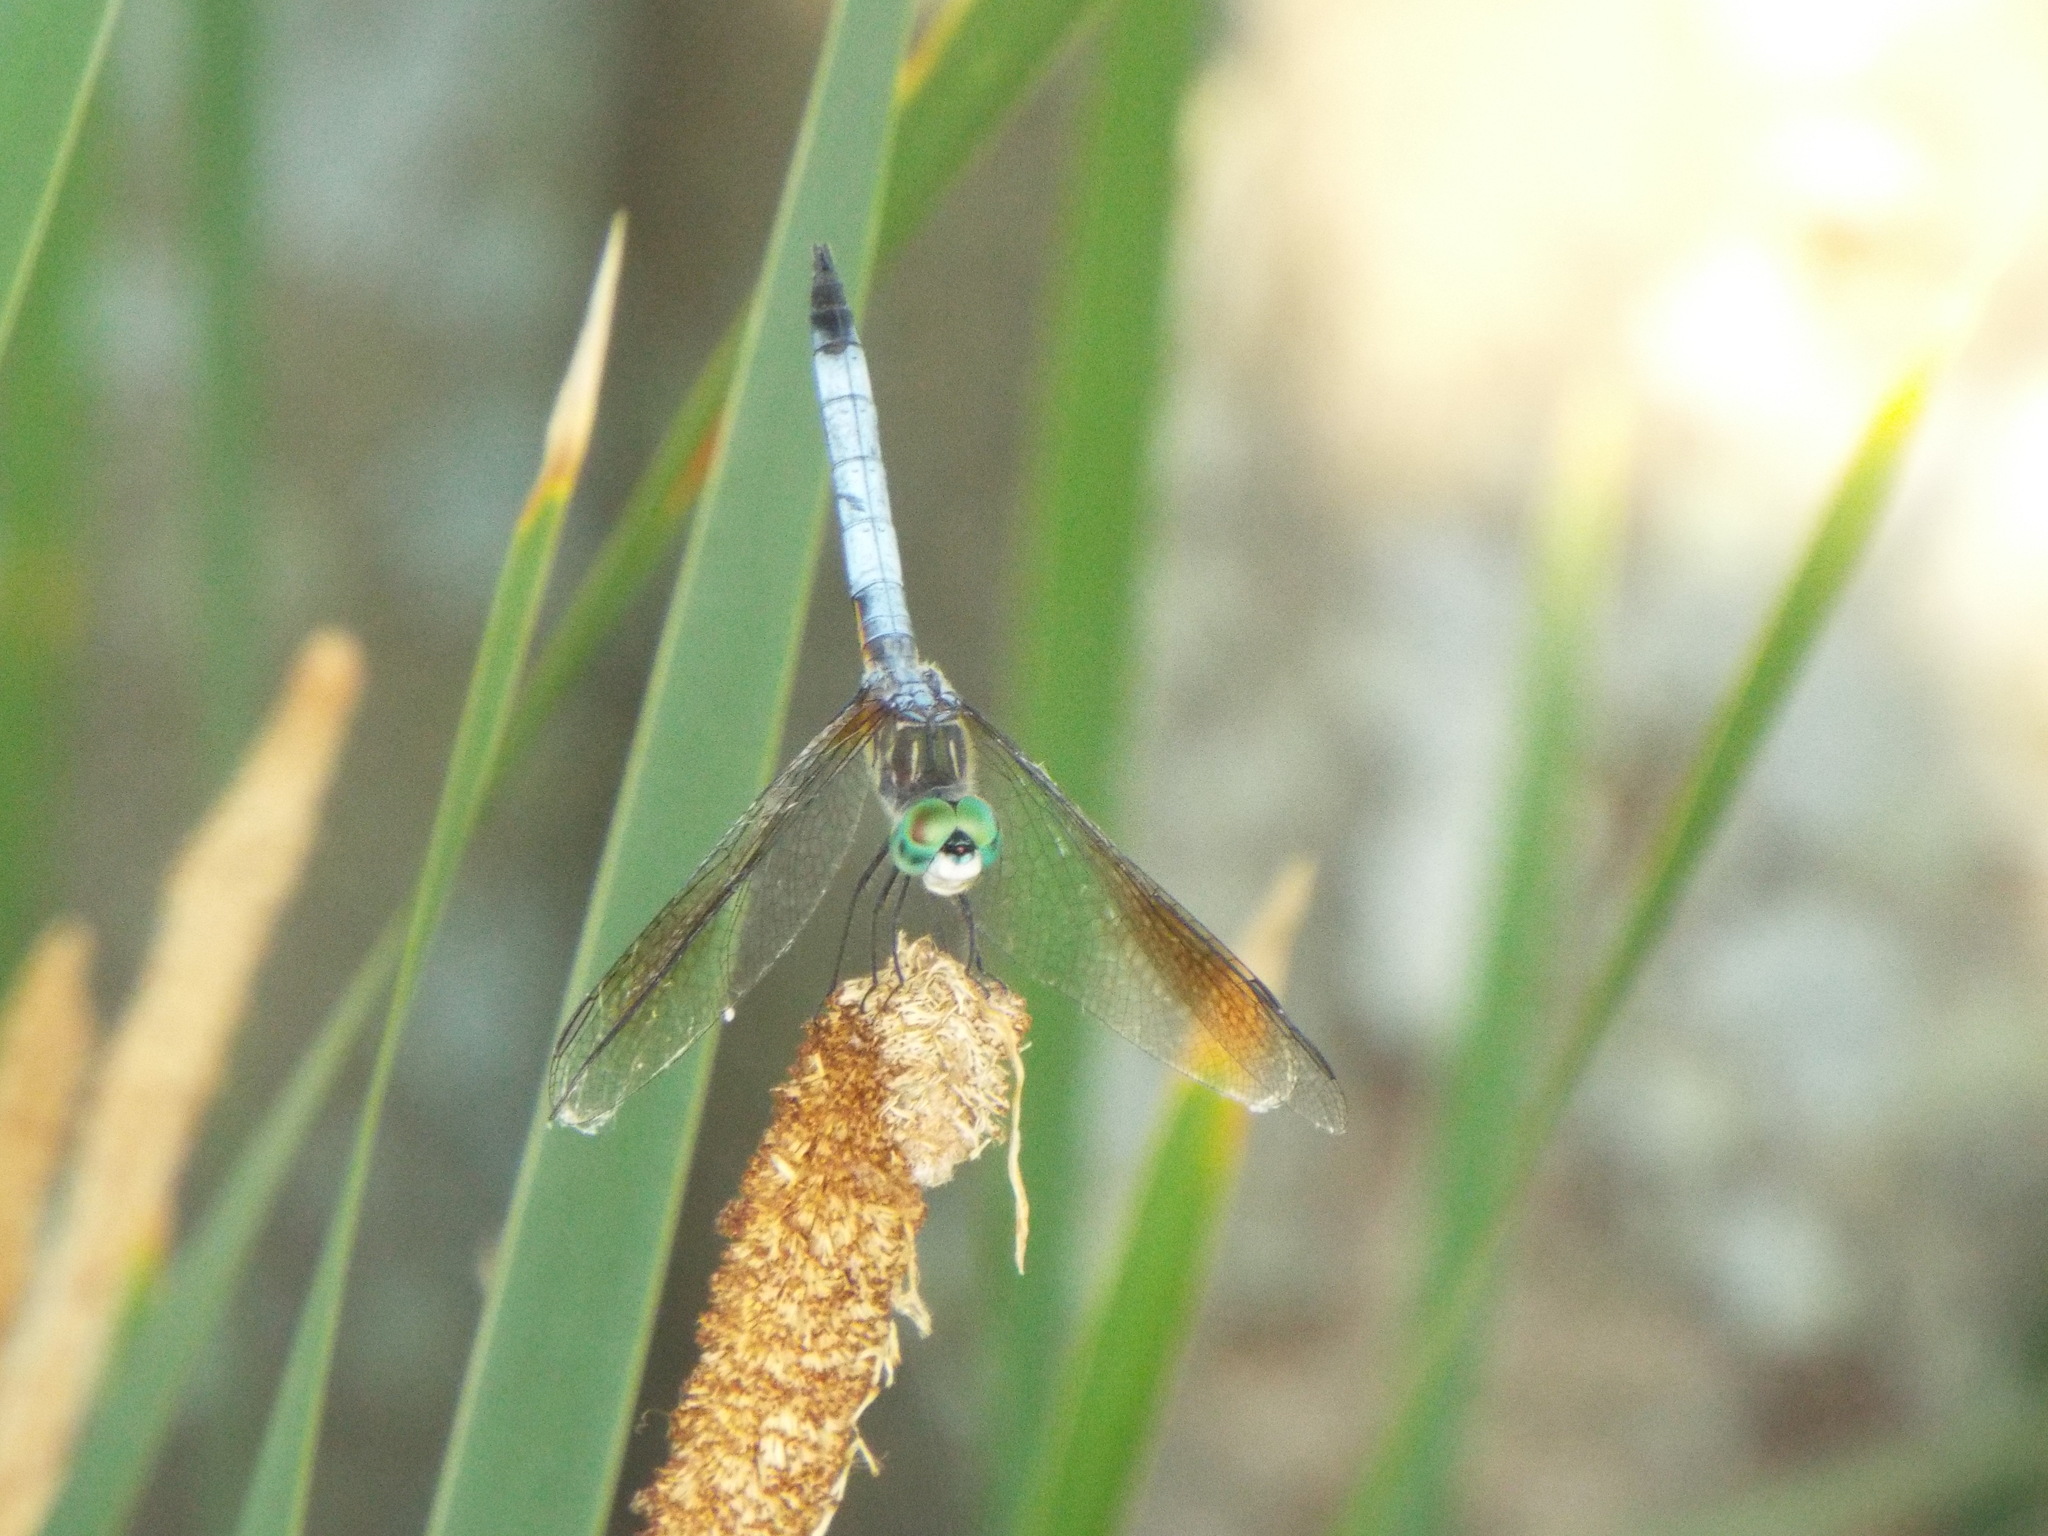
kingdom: Animalia
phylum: Arthropoda
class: Insecta
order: Odonata
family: Libellulidae
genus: Pachydiplax
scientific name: Pachydiplax longipennis
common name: Blue dasher
